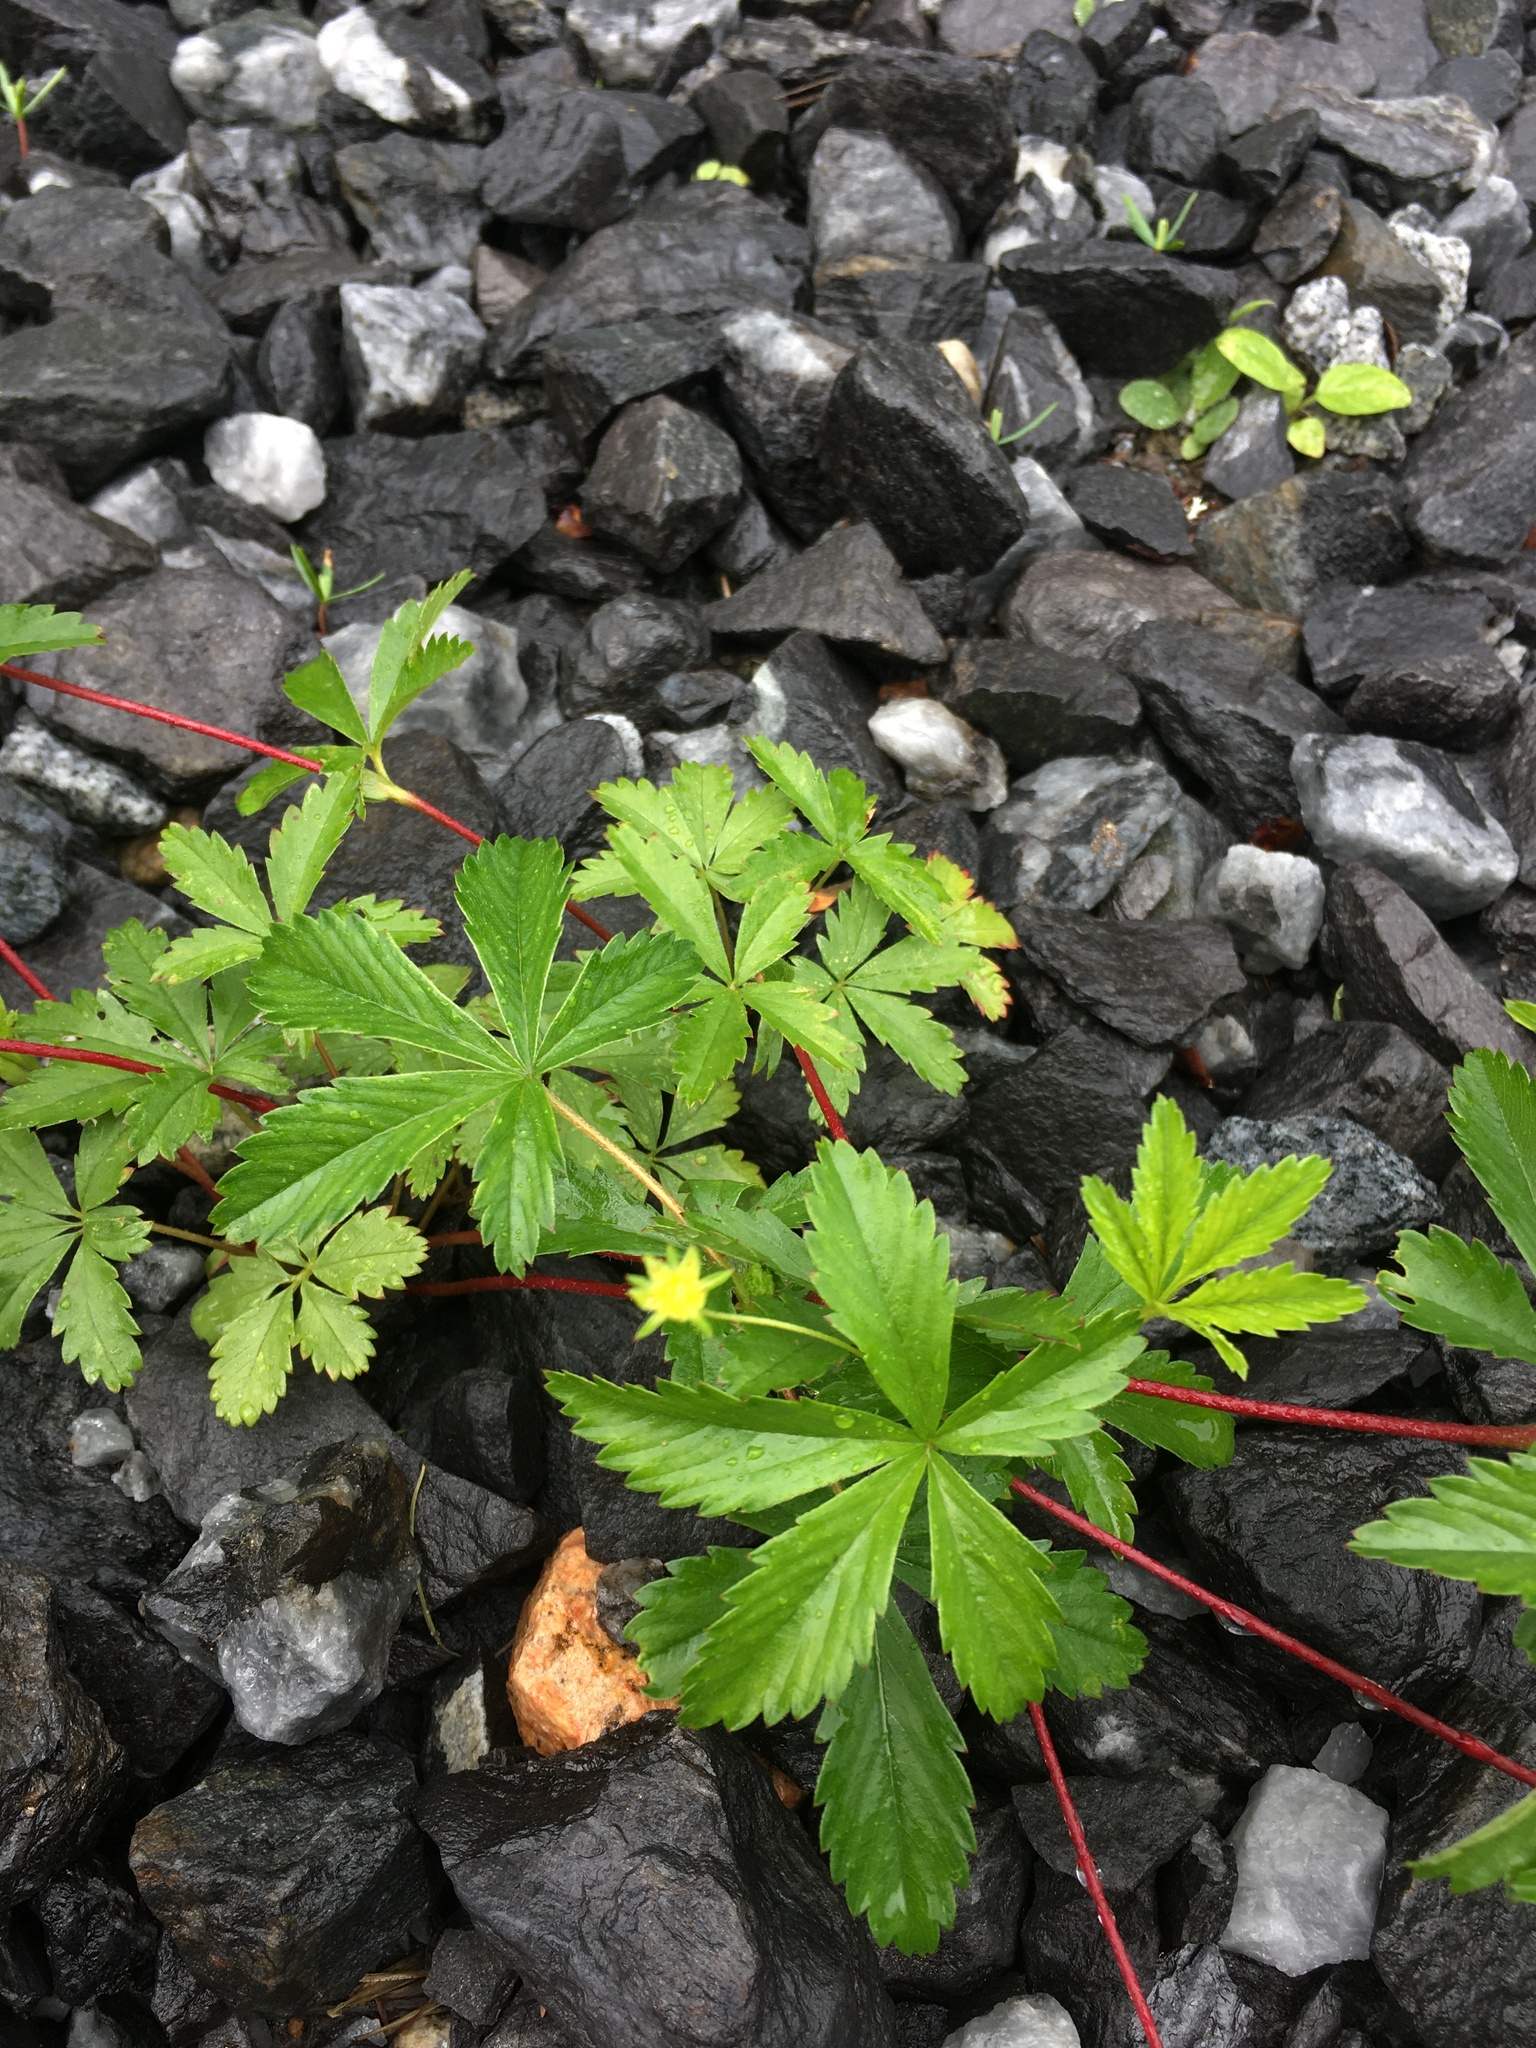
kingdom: Plantae
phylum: Tracheophyta
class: Magnoliopsida
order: Rosales
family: Rosaceae
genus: Potentilla
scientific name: Potentilla simplex
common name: Old field cinquefoil
